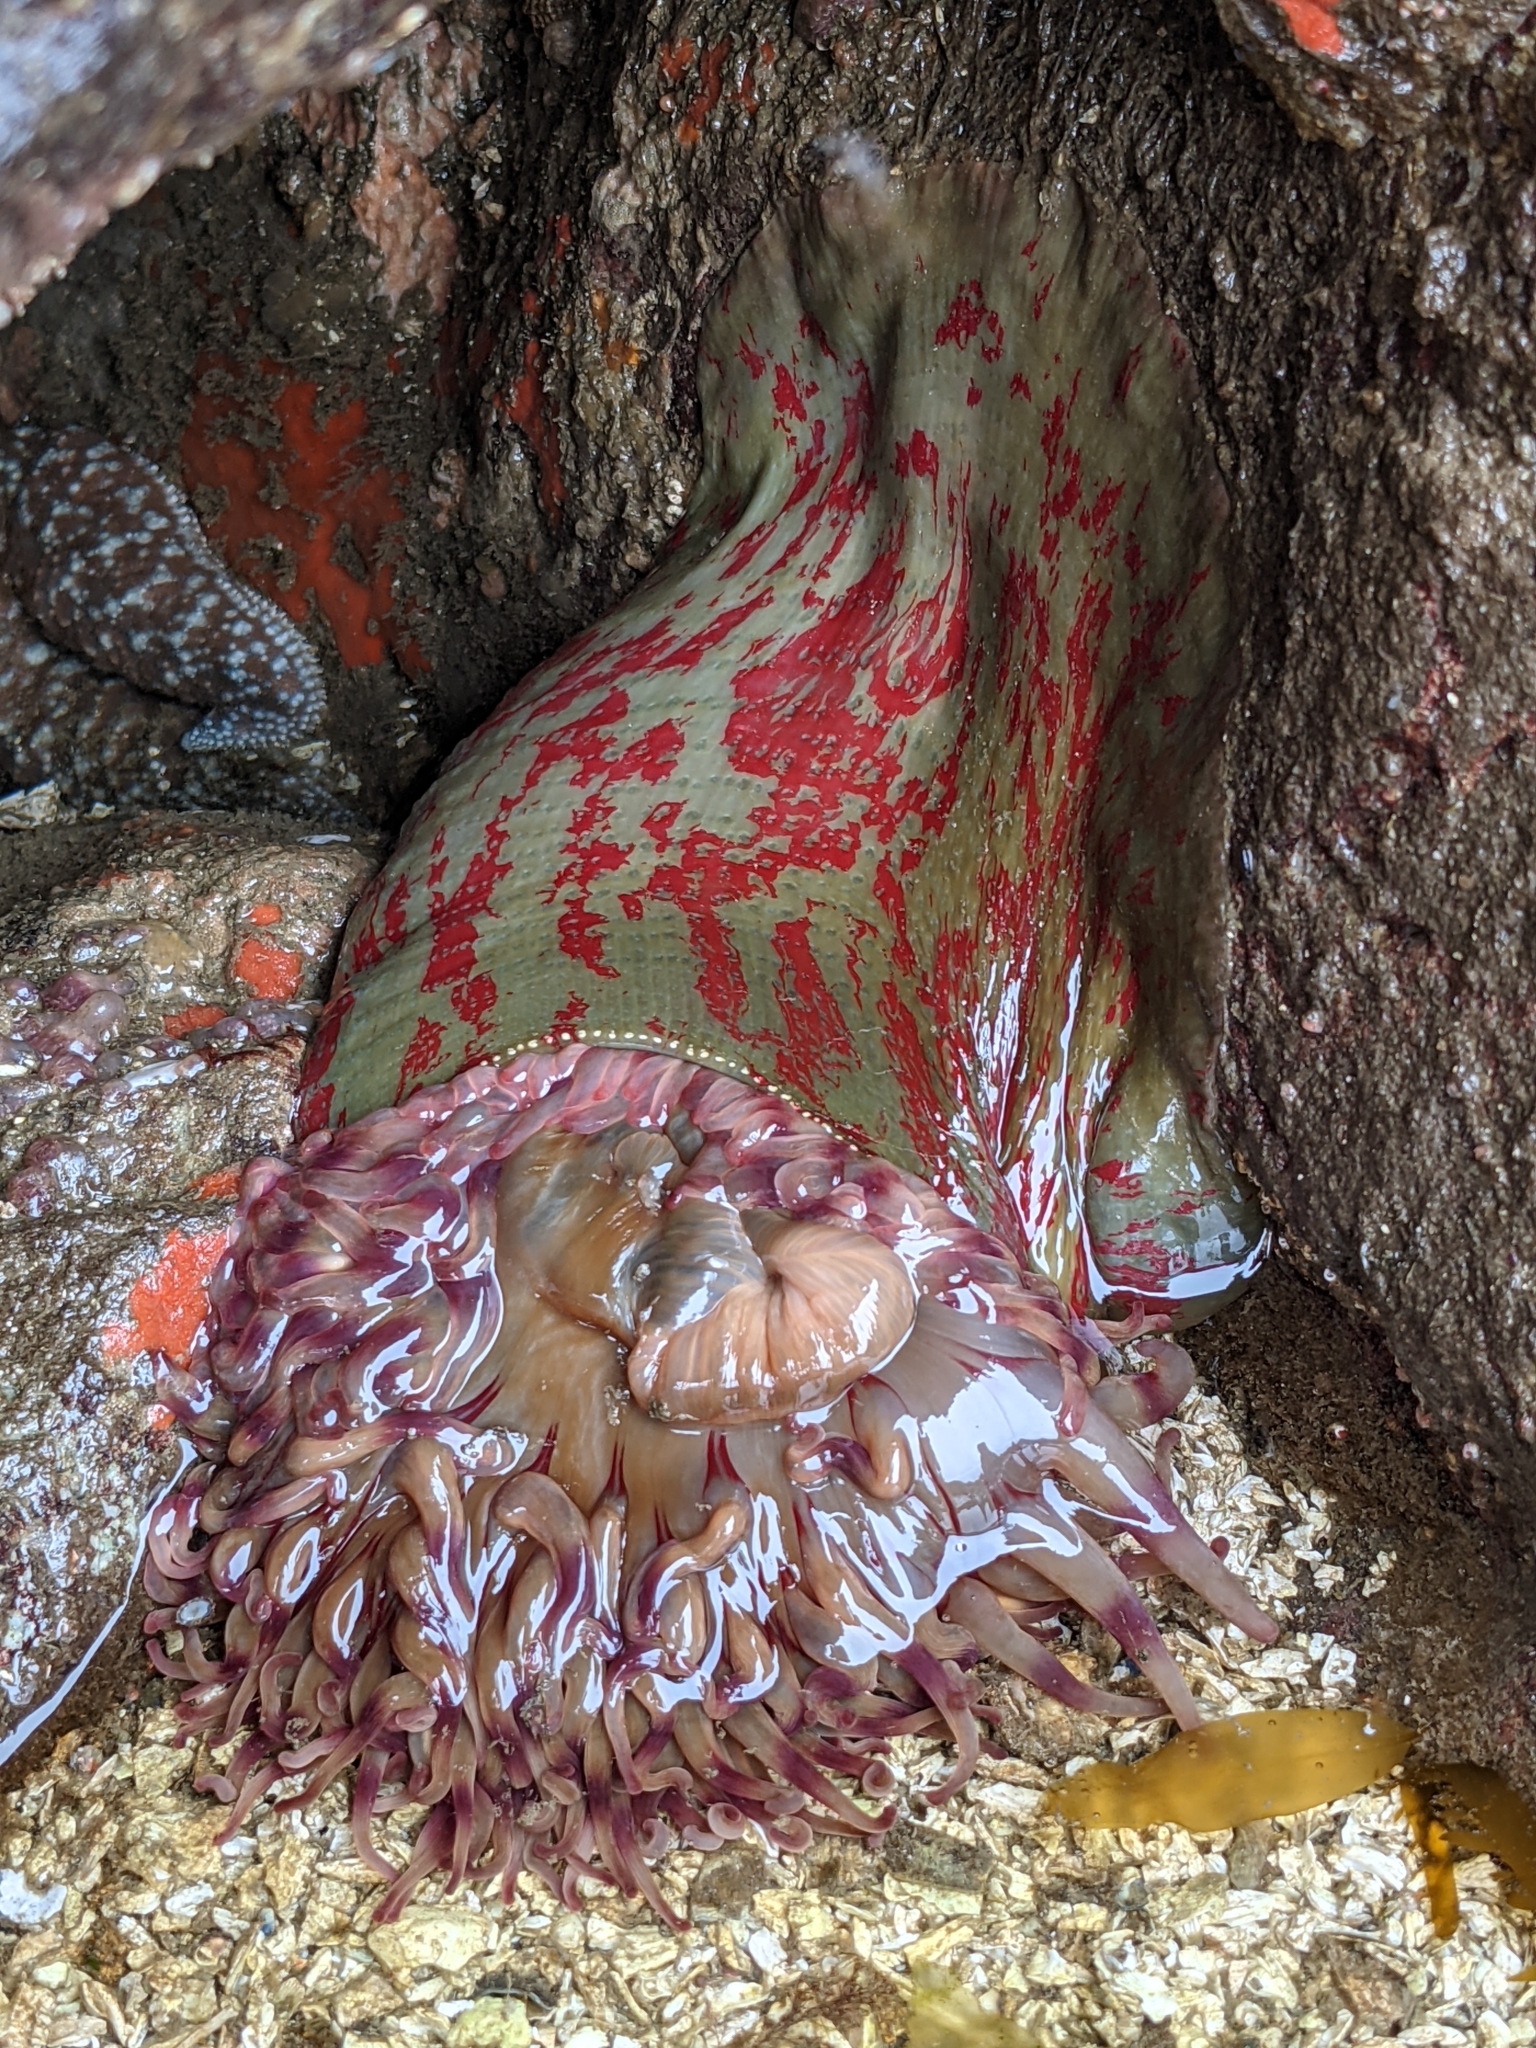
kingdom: Animalia
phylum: Cnidaria
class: Anthozoa
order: Actiniaria
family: Actiniidae
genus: Urticina
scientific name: Urticina grebelnyi
